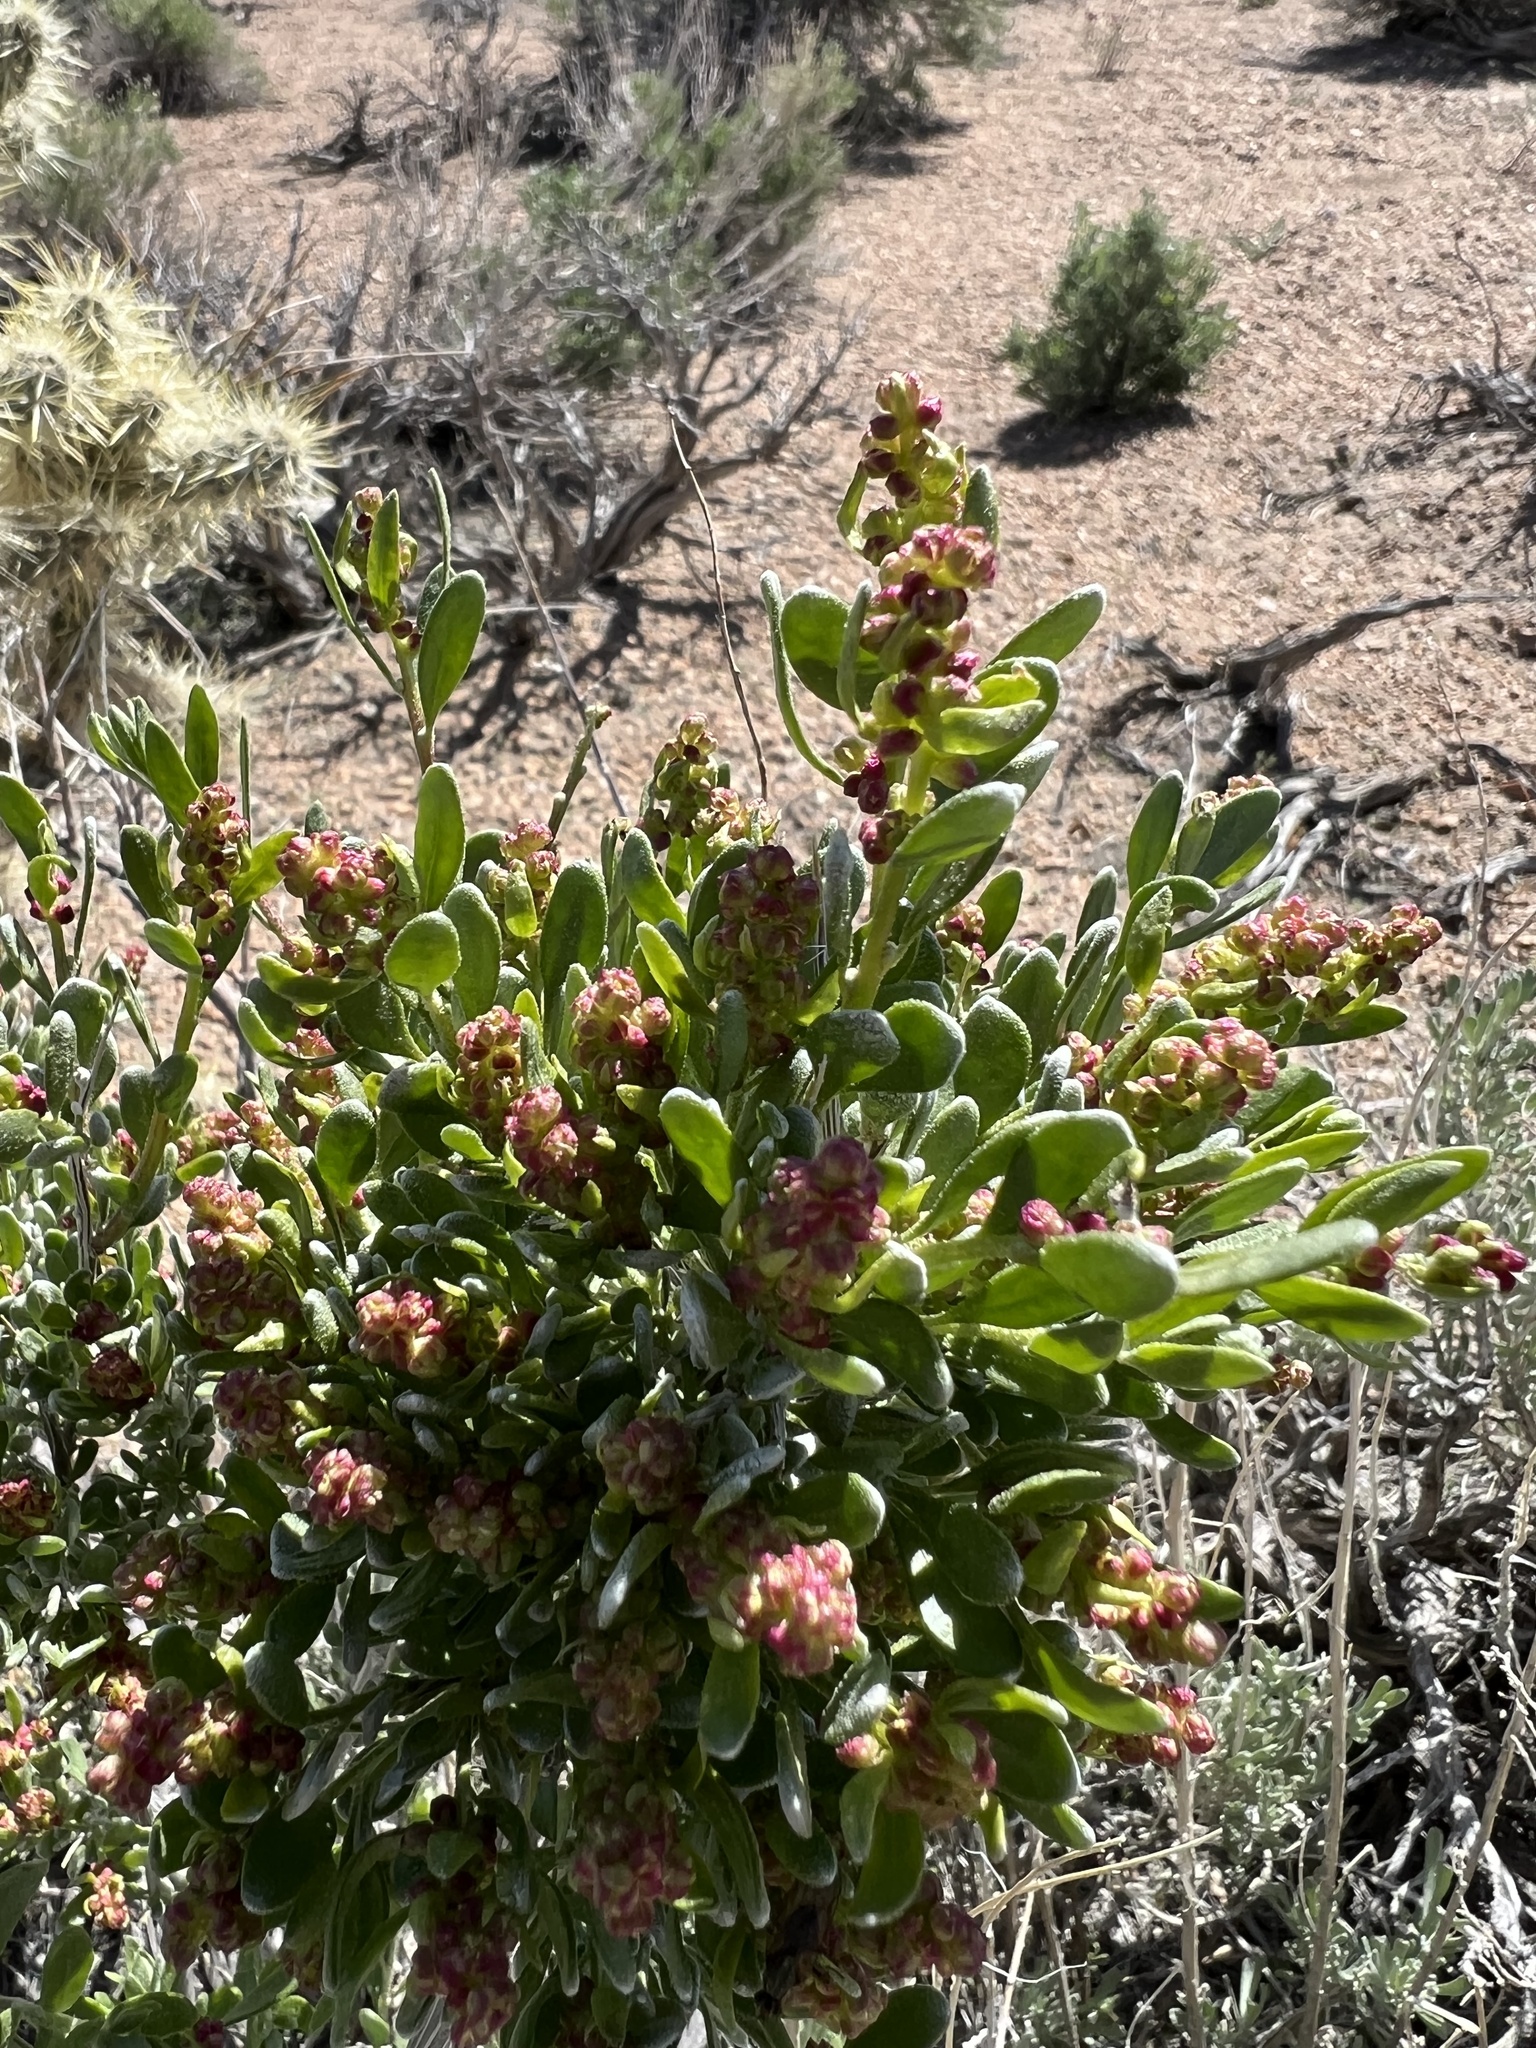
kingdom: Plantae
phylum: Tracheophyta
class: Magnoliopsida
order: Caryophyllales
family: Amaranthaceae
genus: Grayia
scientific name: Grayia spinosa
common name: Spiny hopsage
